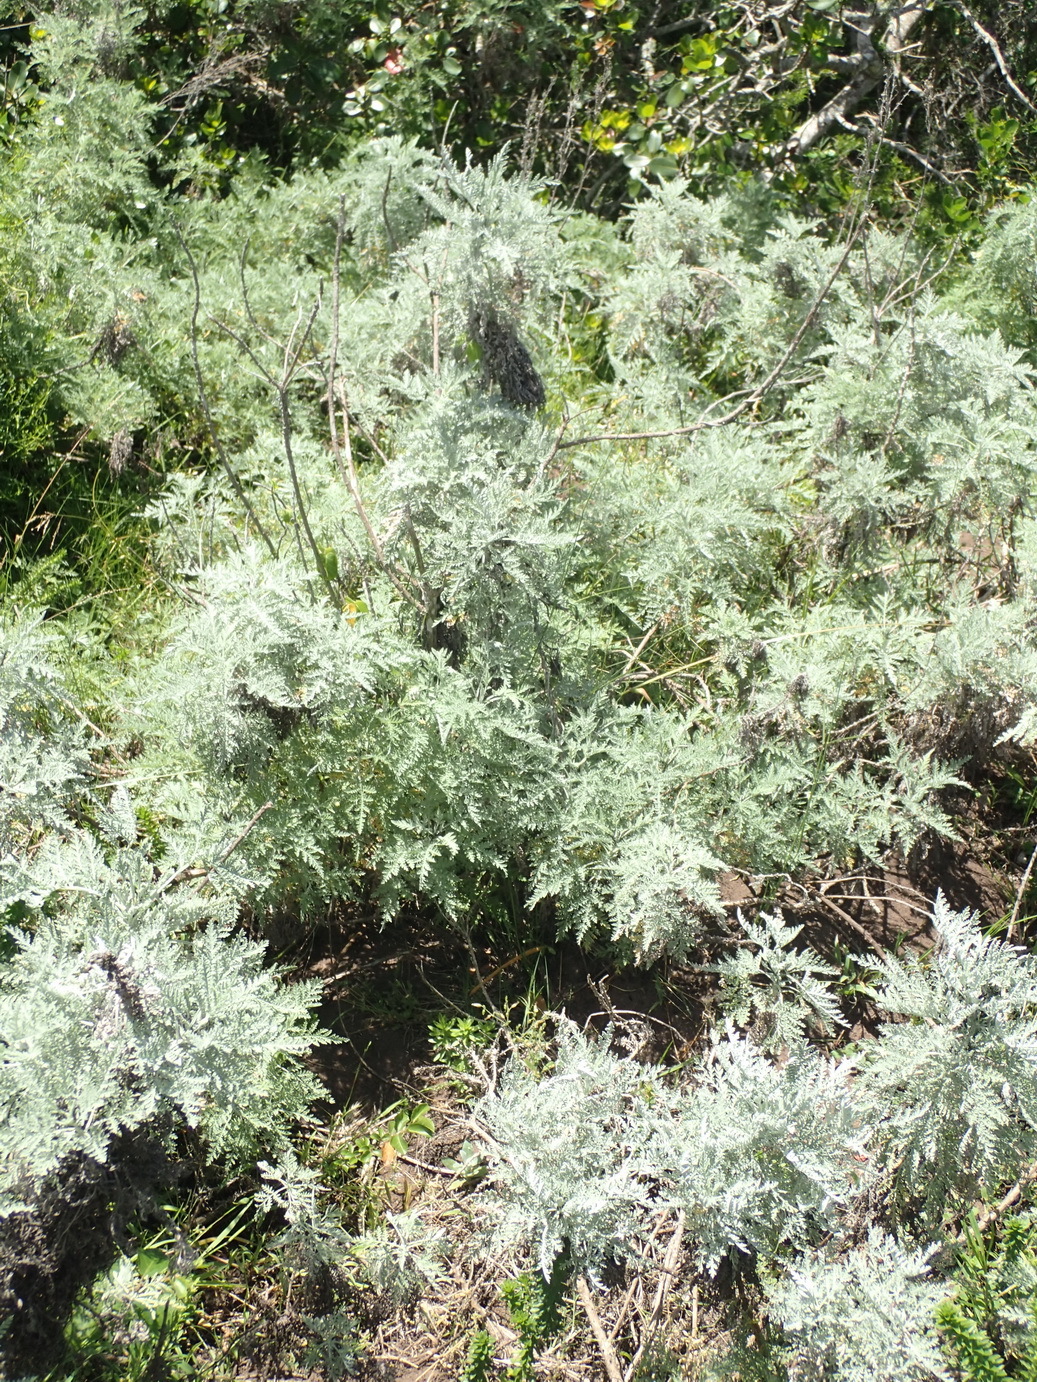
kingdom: Plantae
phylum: Tracheophyta
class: Magnoliopsida
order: Asterales
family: Asteraceae
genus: Artemisia
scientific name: Artemisia afra
